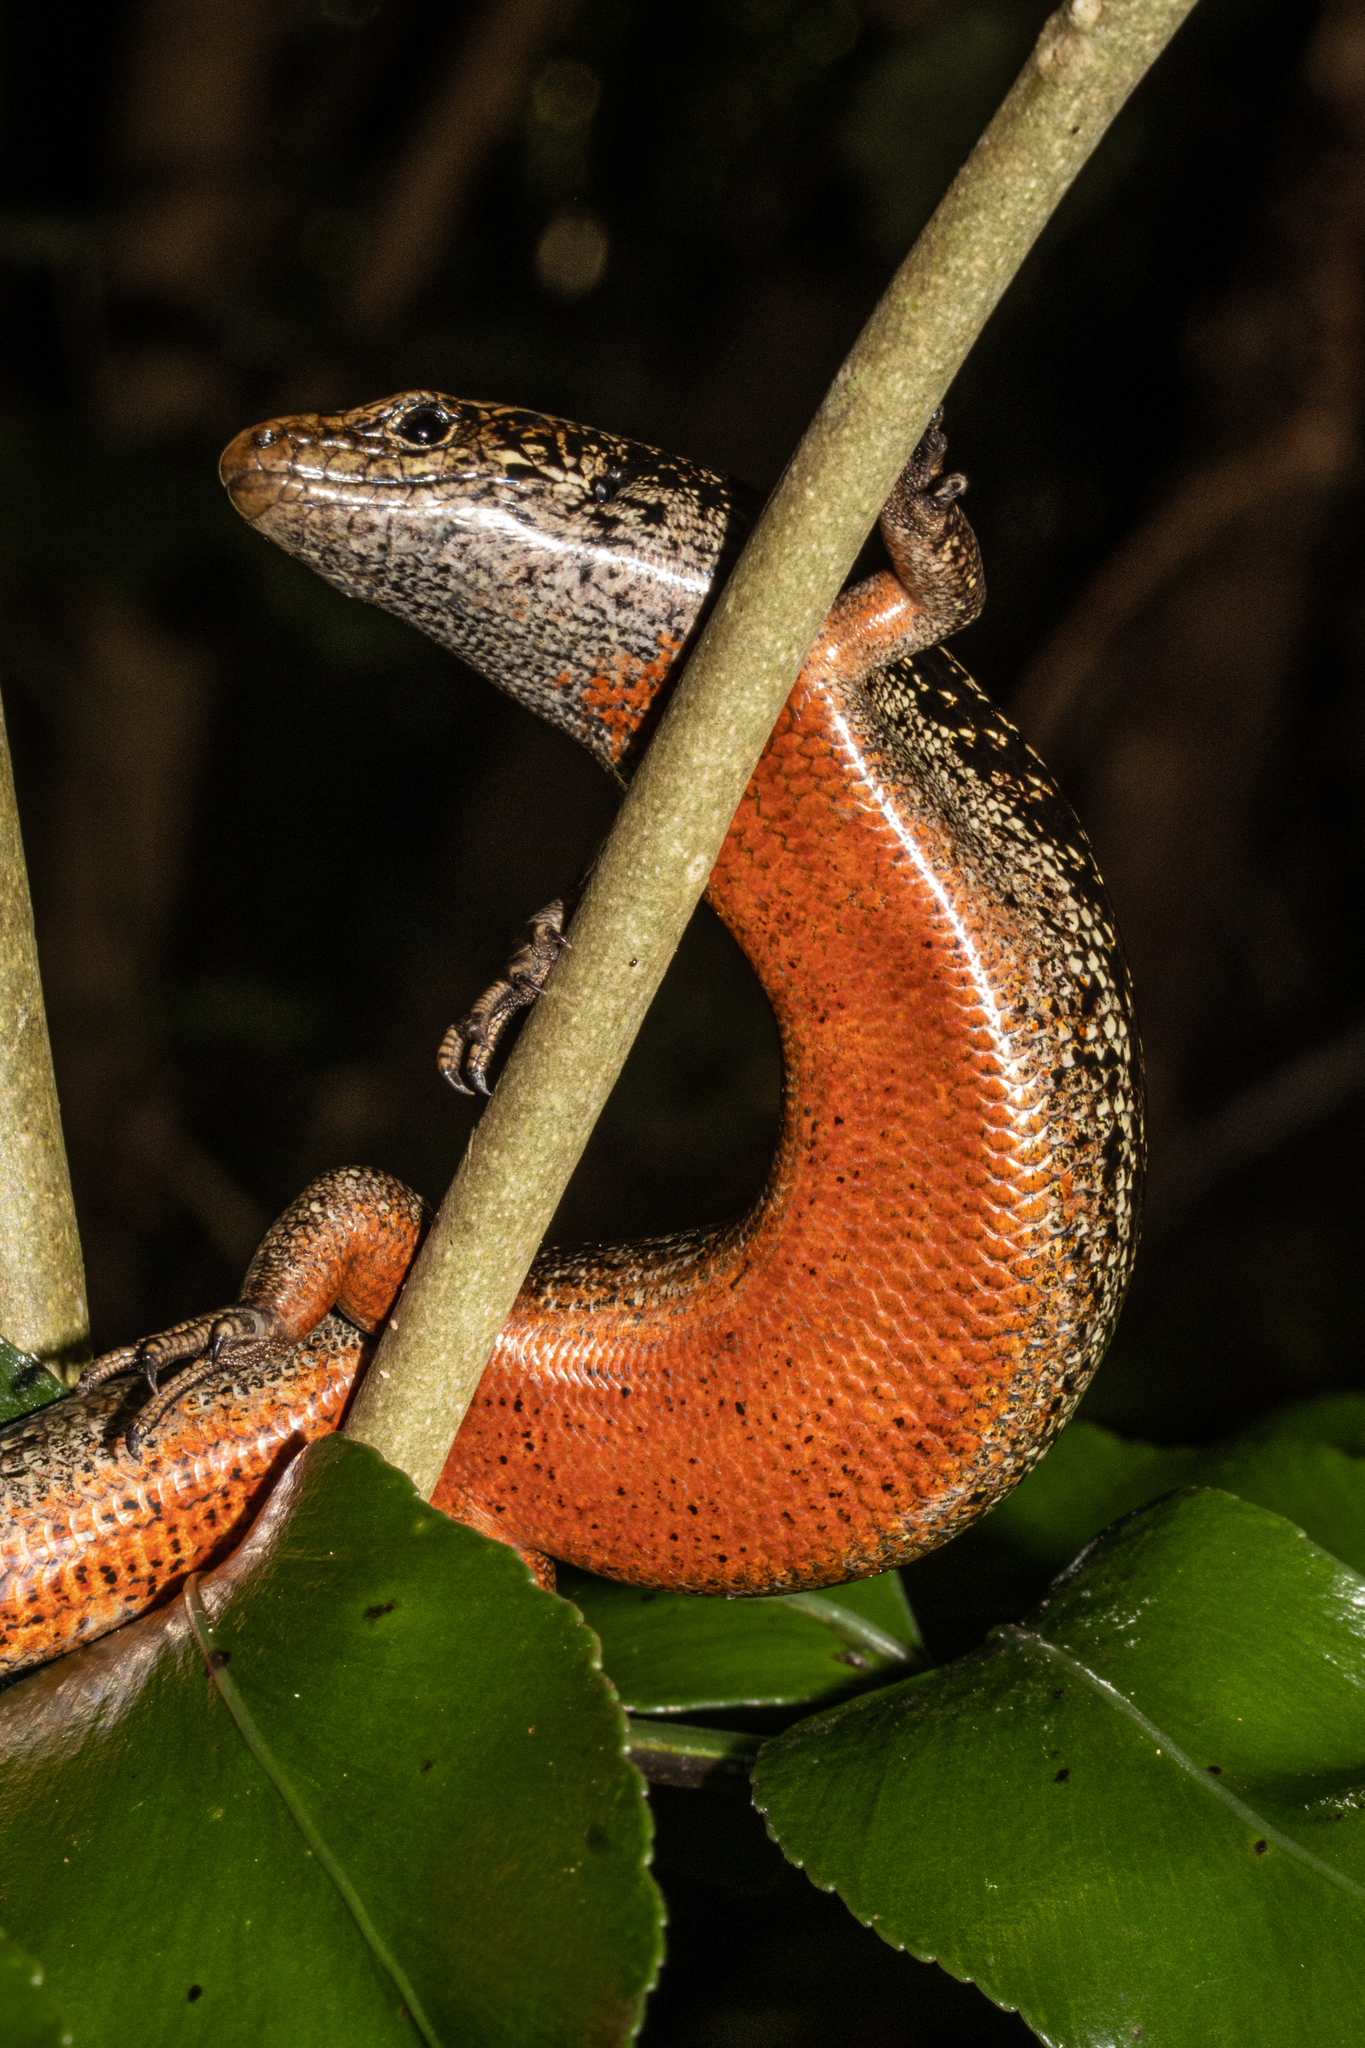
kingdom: Animalia
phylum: Chordata
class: Squamata
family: Scincidae
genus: Oligosoma
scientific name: Oligosoma kokowai
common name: Northern spotted skink
